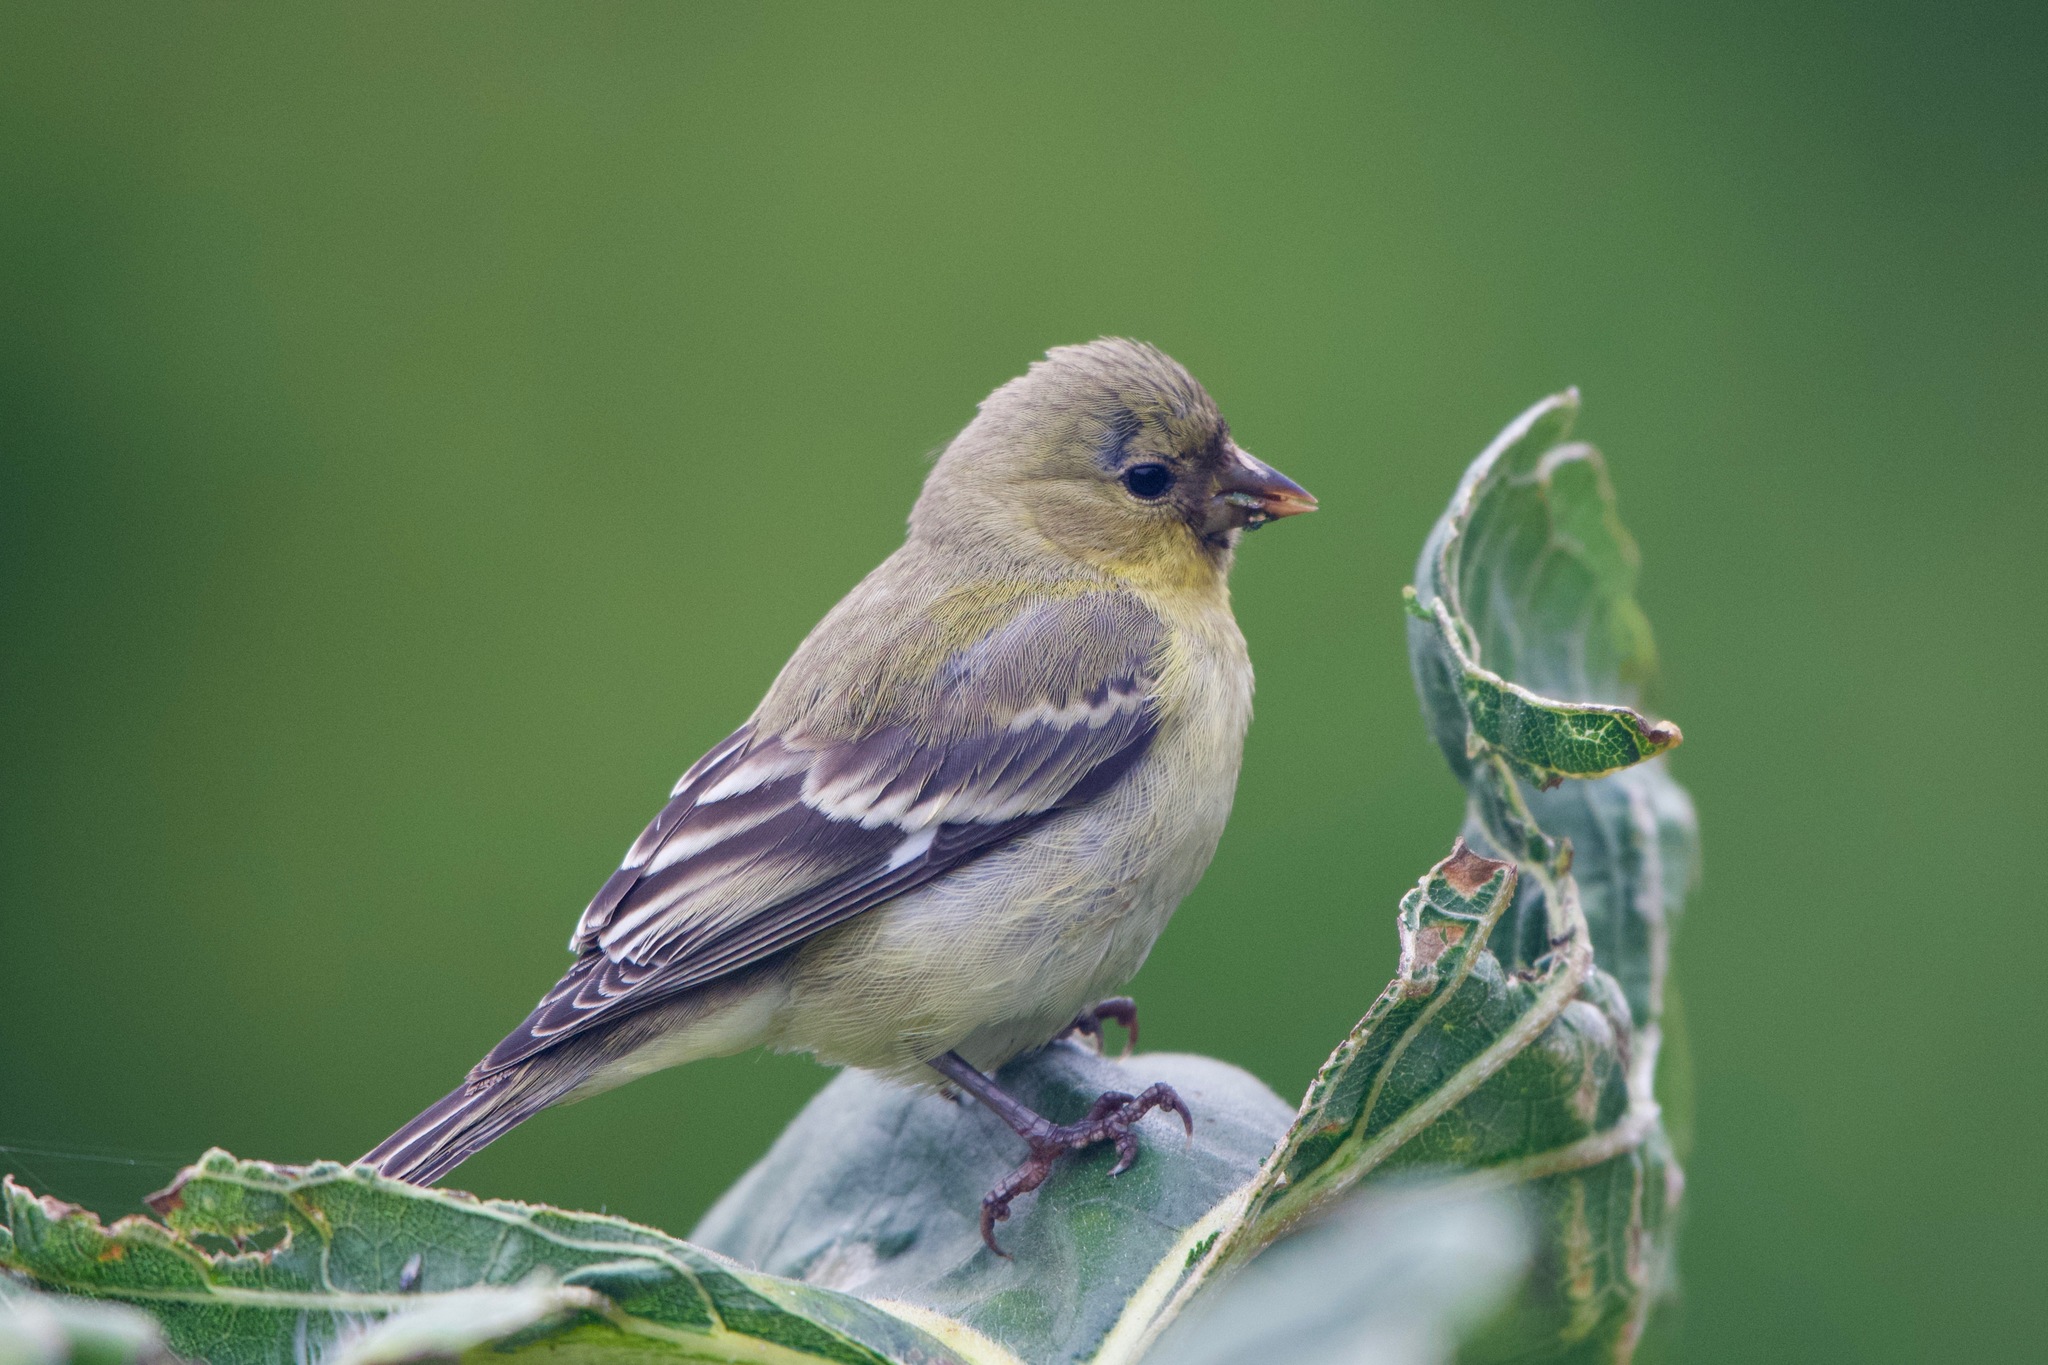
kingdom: Animalia
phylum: Chordata
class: Aves
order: Passeriformes
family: Fringillidae
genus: Spinus
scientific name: Spinus psaltria
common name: Lesser goldfinch
